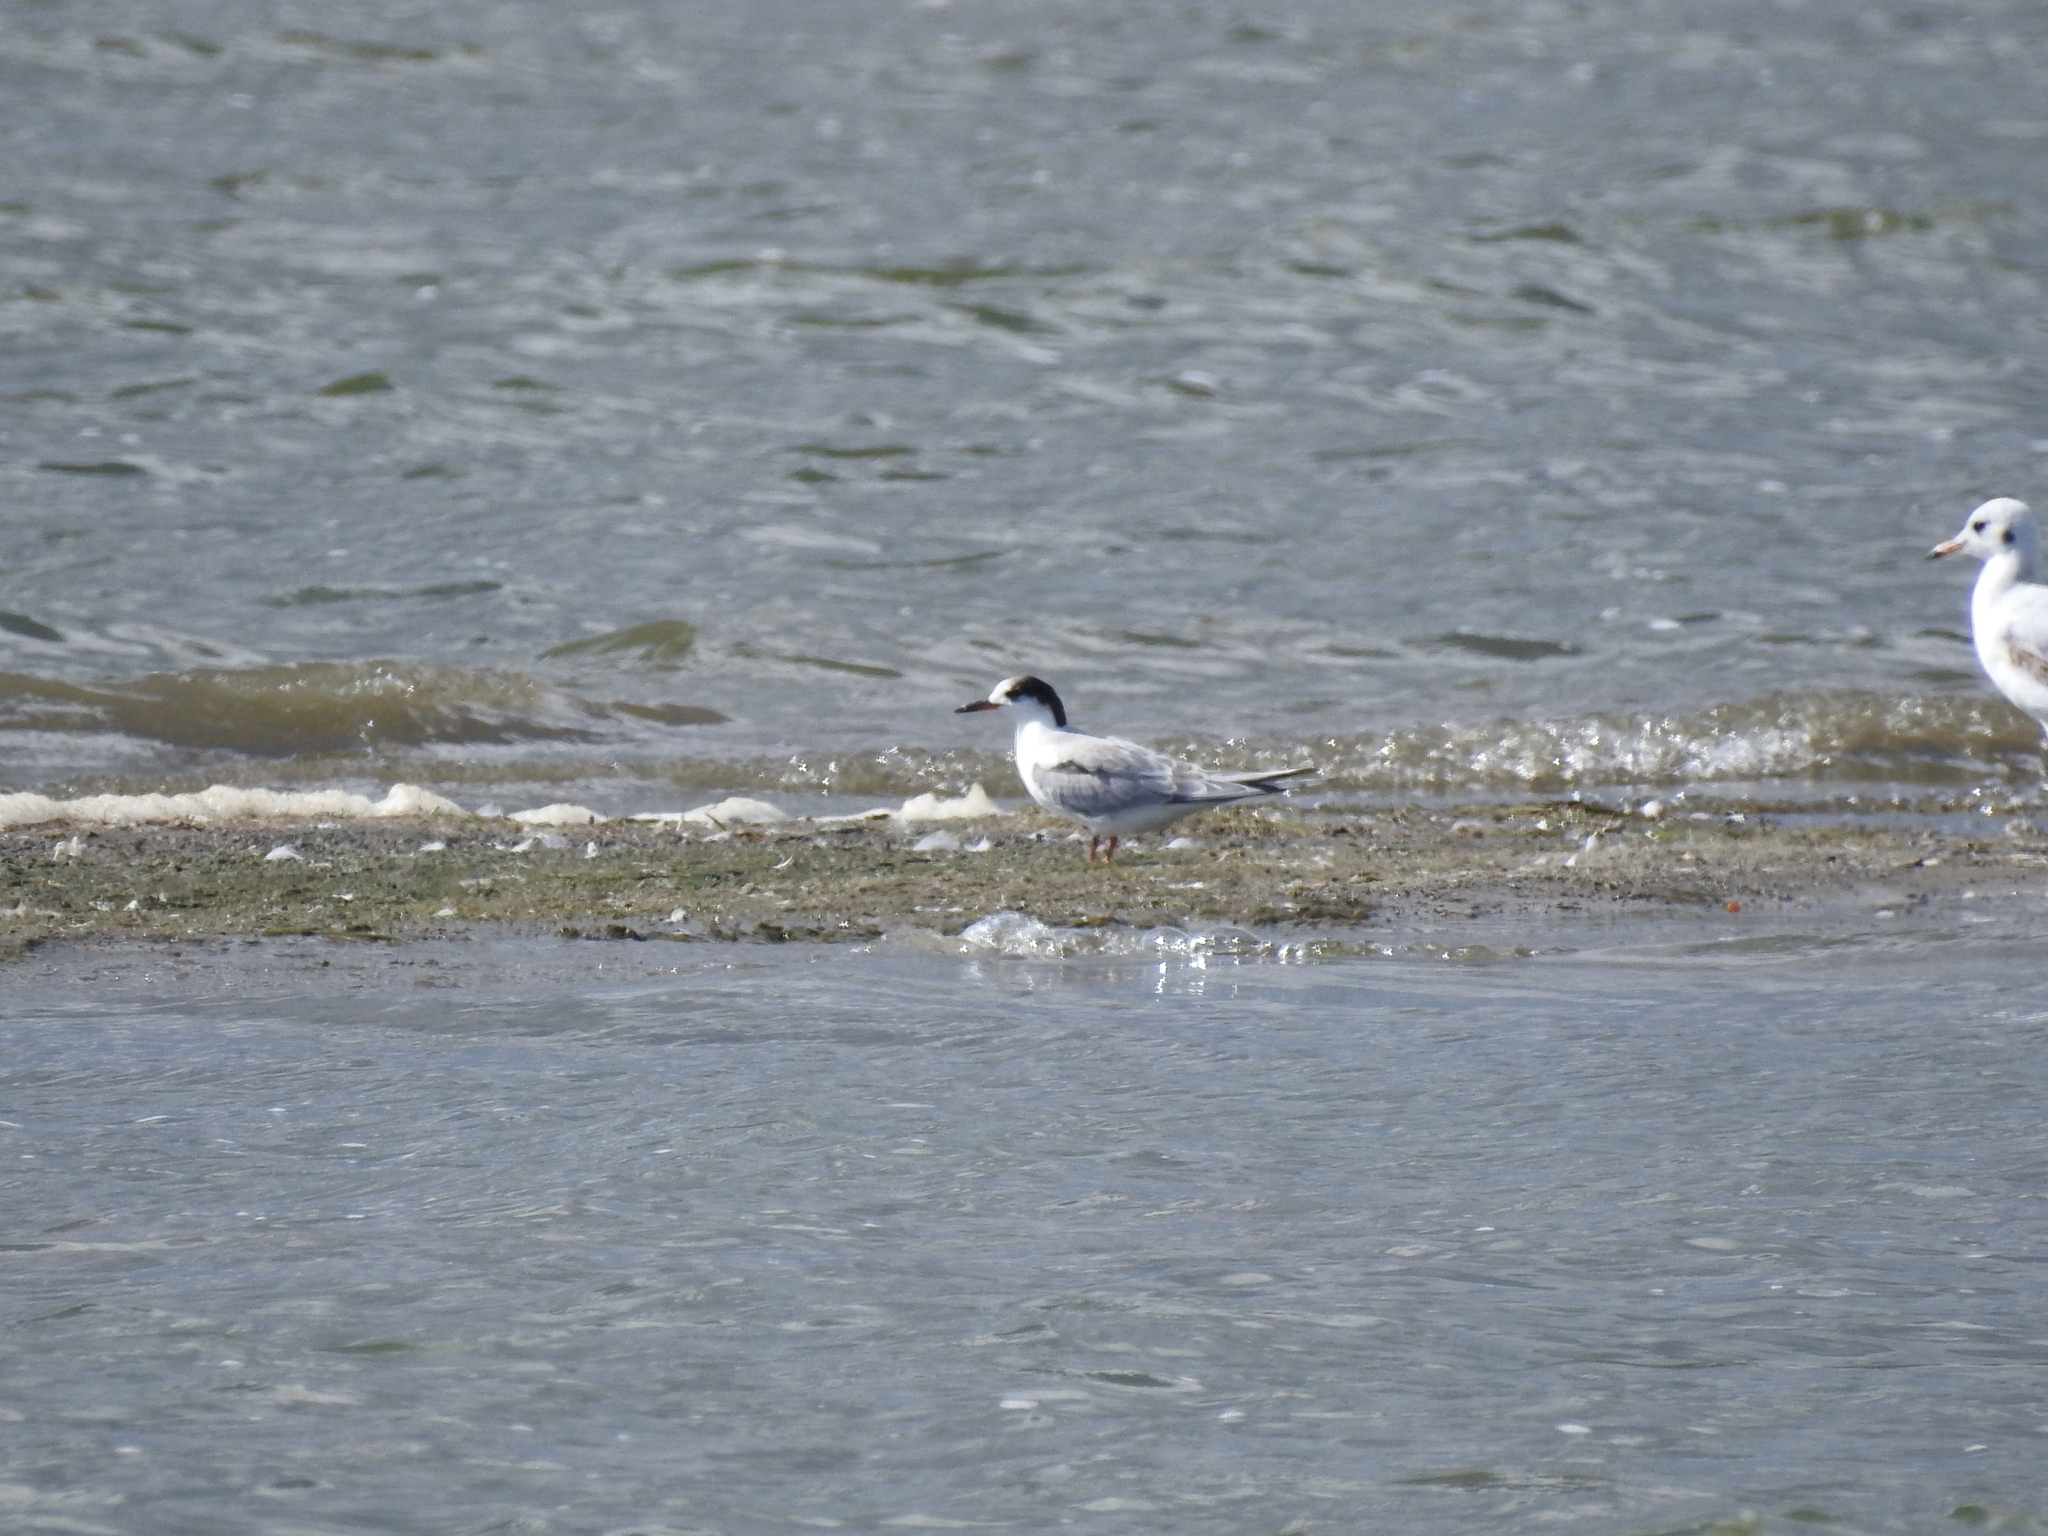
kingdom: Animalia
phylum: Chordata
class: Aves
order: Charadriiformes
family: Laridae
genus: Sterna
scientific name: Sterna hirundo
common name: Common tern
